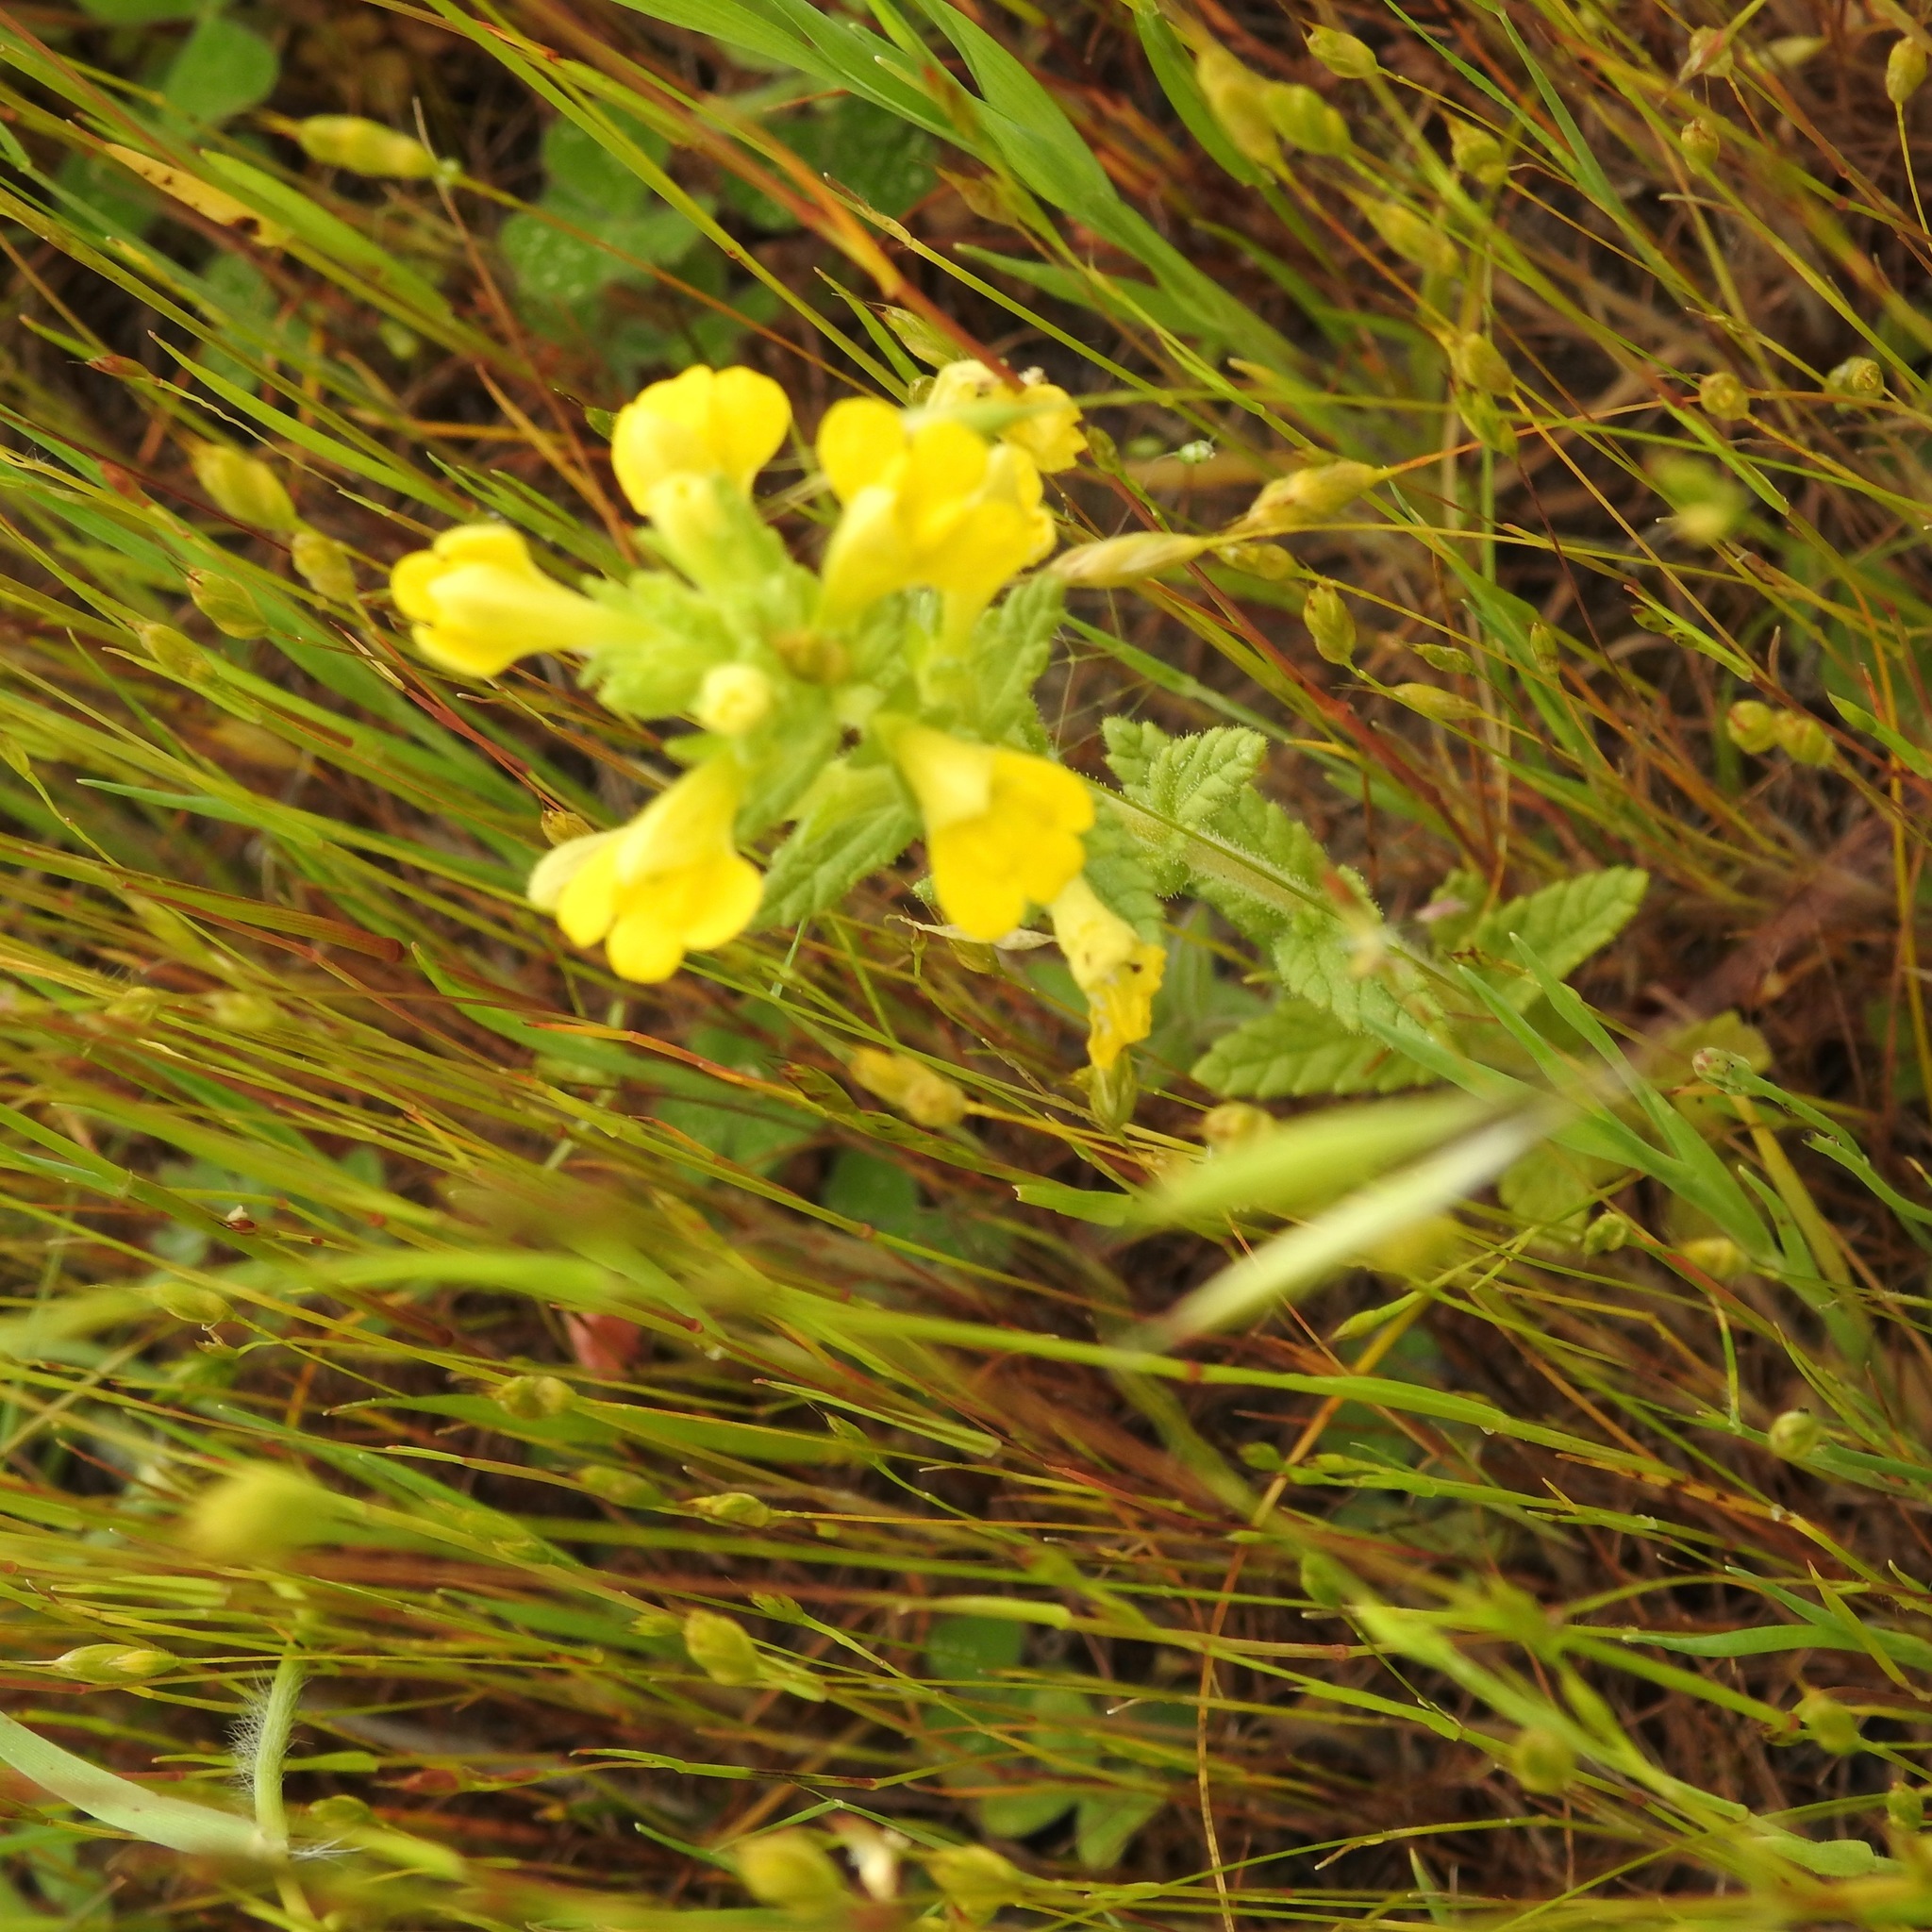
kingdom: Plantae
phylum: Tracheophyta
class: Magnoliopsida
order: Lamiales
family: Orobanchaceae
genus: Bellardia
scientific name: Bellardia viscosa
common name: Sticky parentucellia
